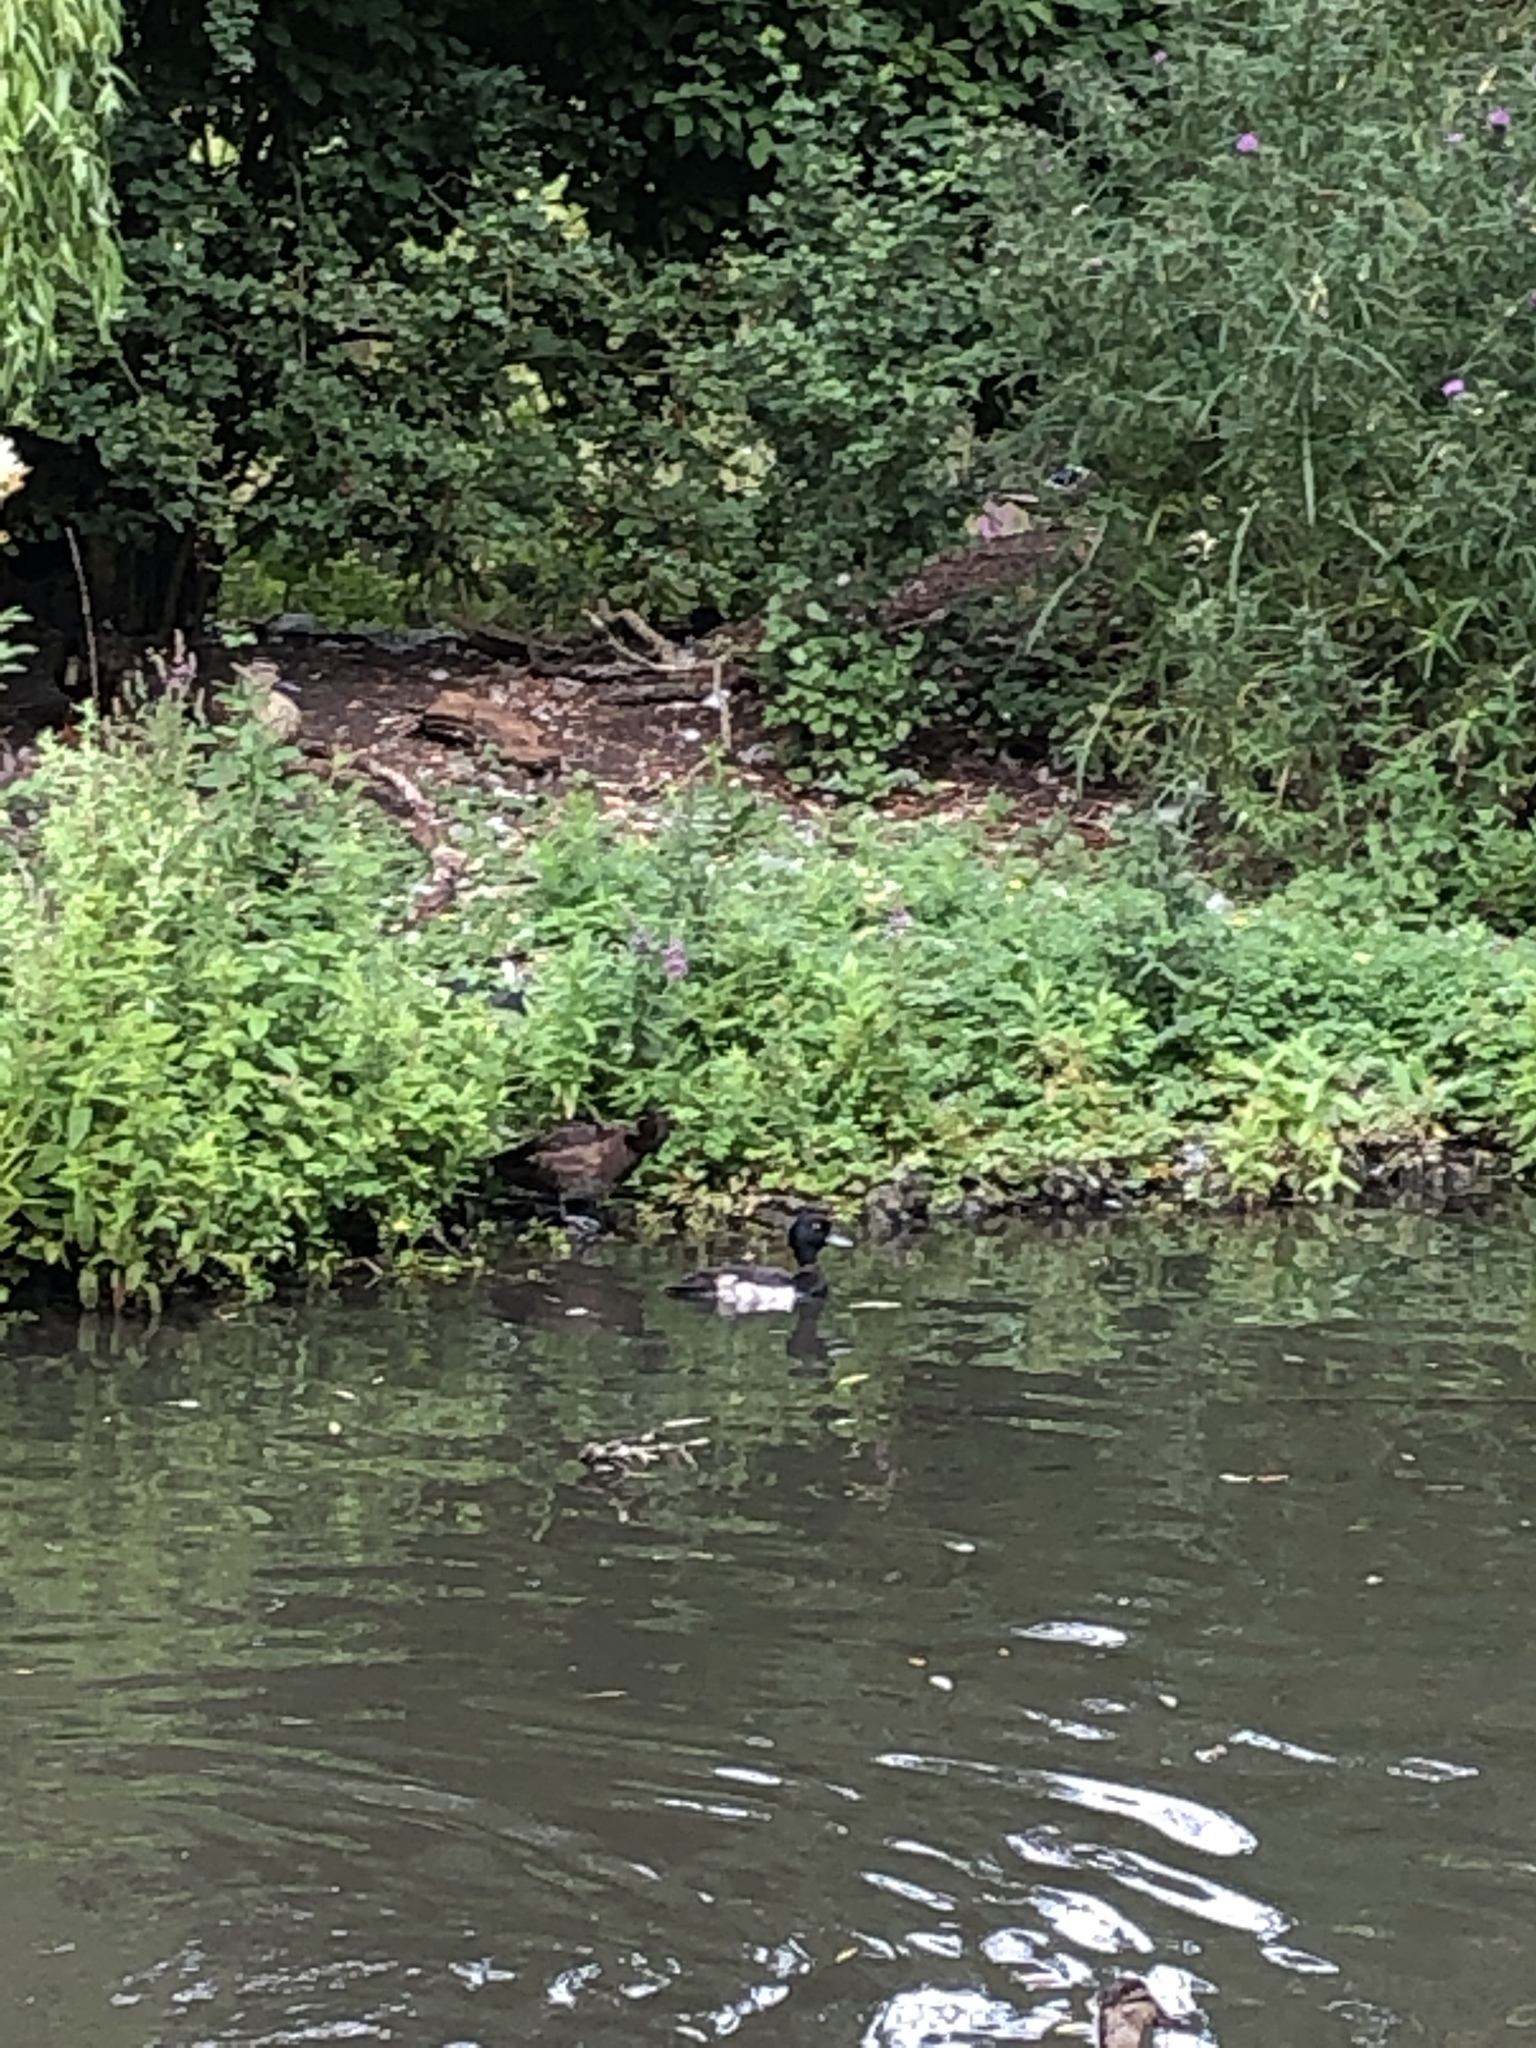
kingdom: Animalia
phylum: Chordata
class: Aves
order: Anseriformes
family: Anatidae
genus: Aythya
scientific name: Aythya fuligula
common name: Tufted duck
